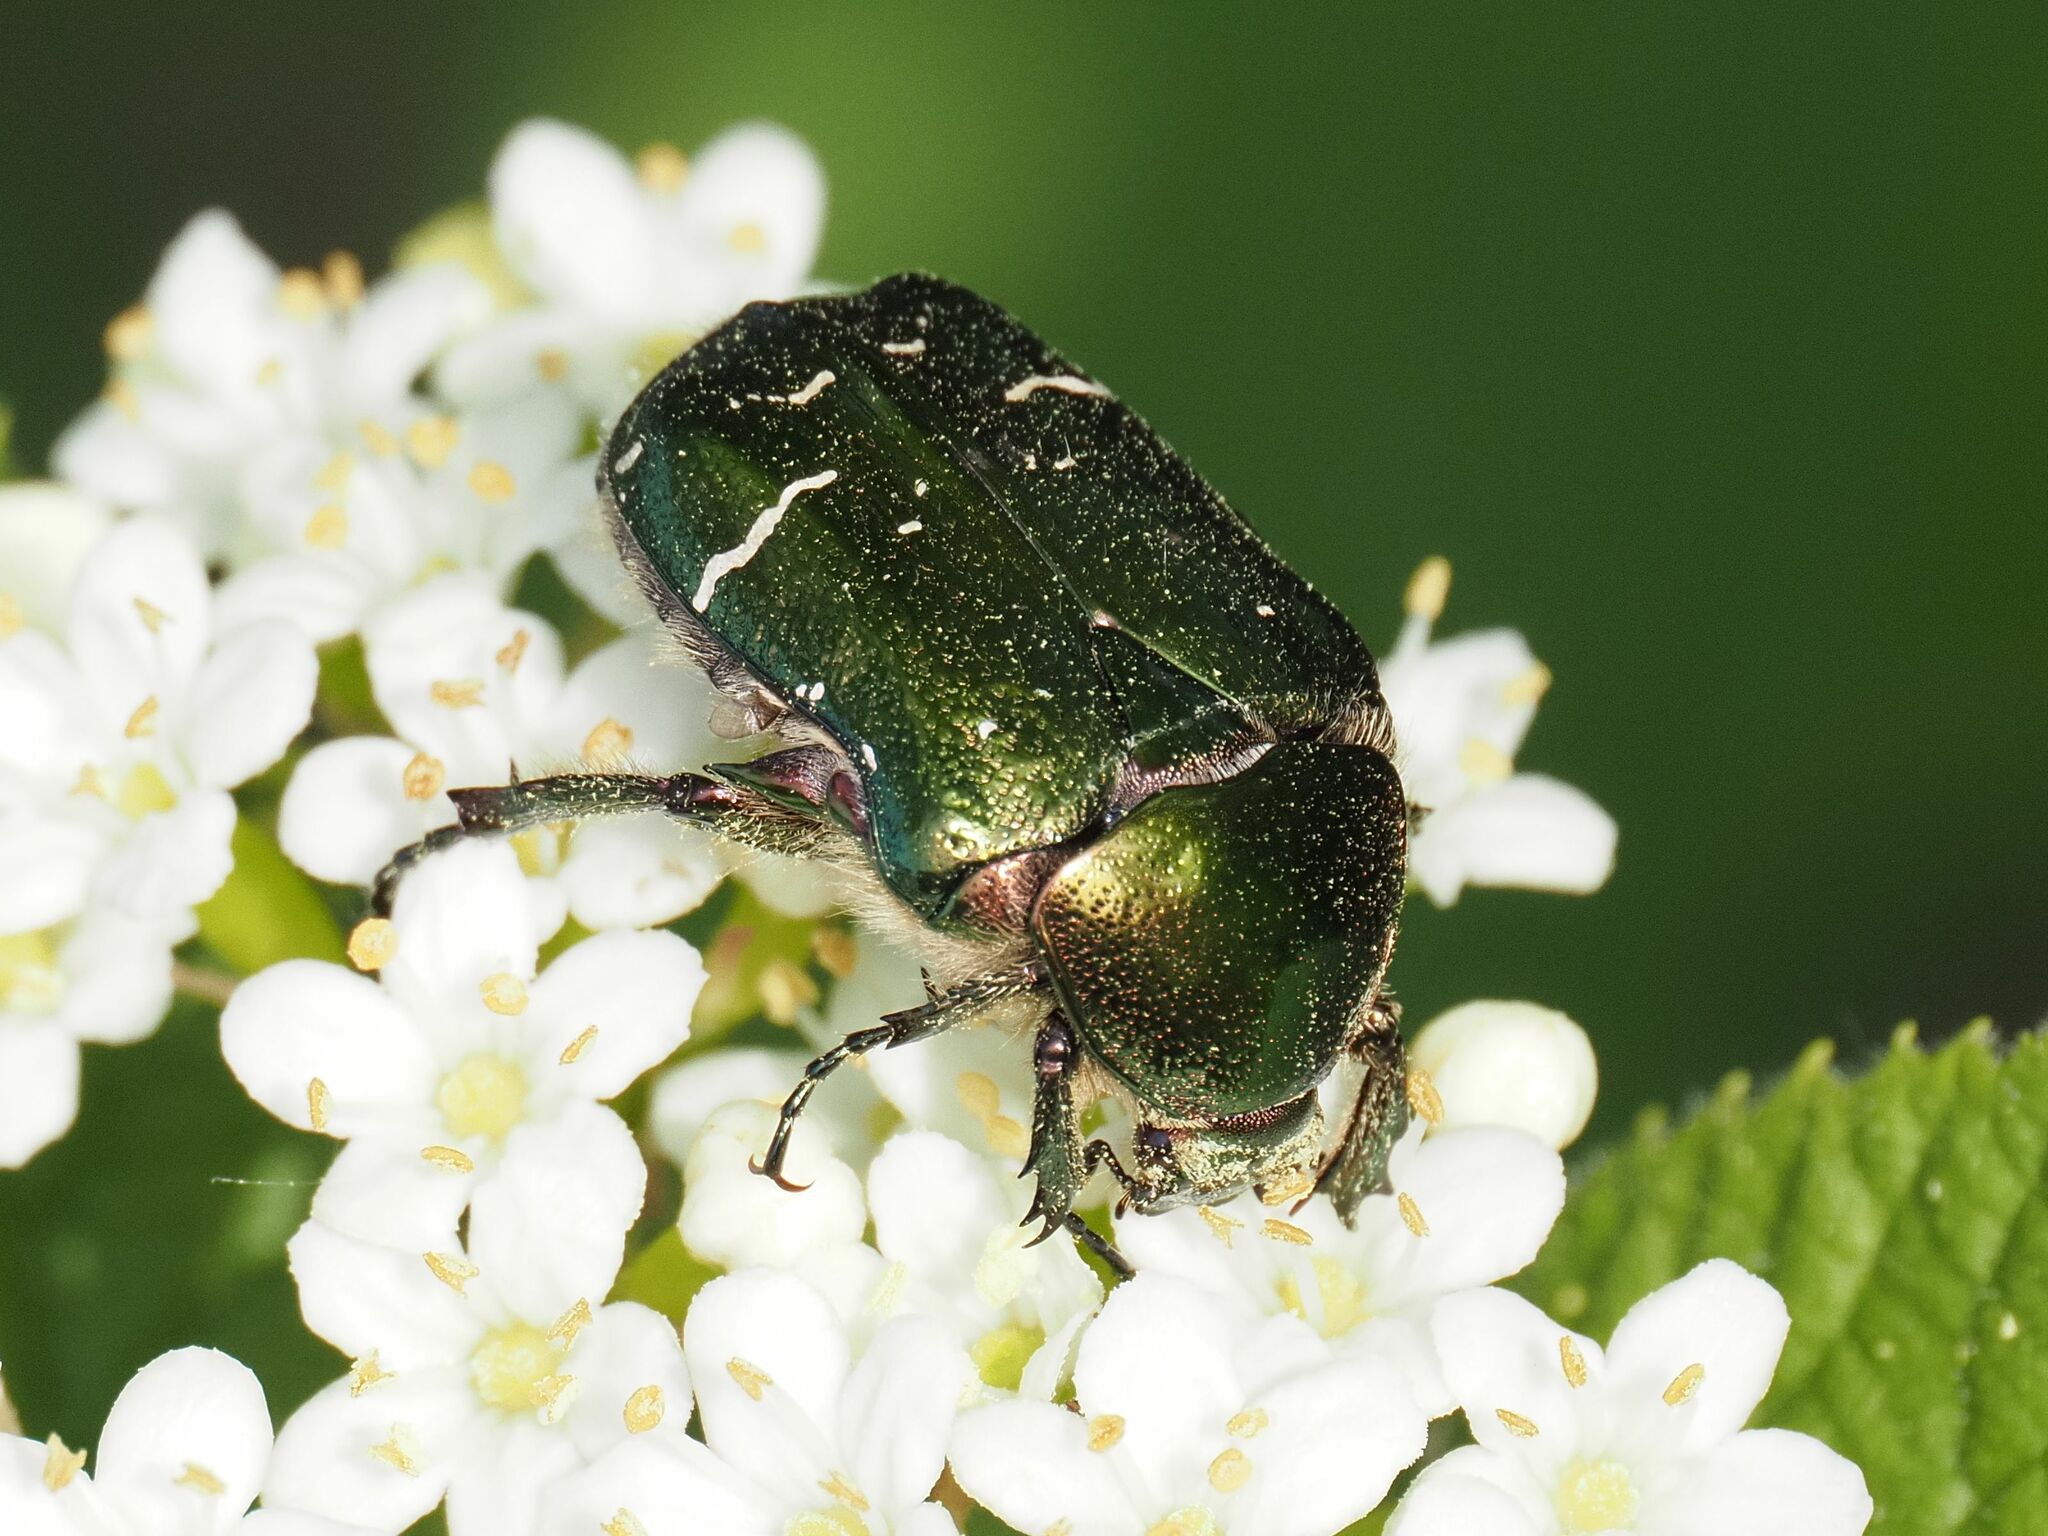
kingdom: Animalia
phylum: Arthropoda
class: Insecta
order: Coleoptera
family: Scarabaeidae
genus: Cetonia
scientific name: Cetonia aurata
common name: Rose chafer
